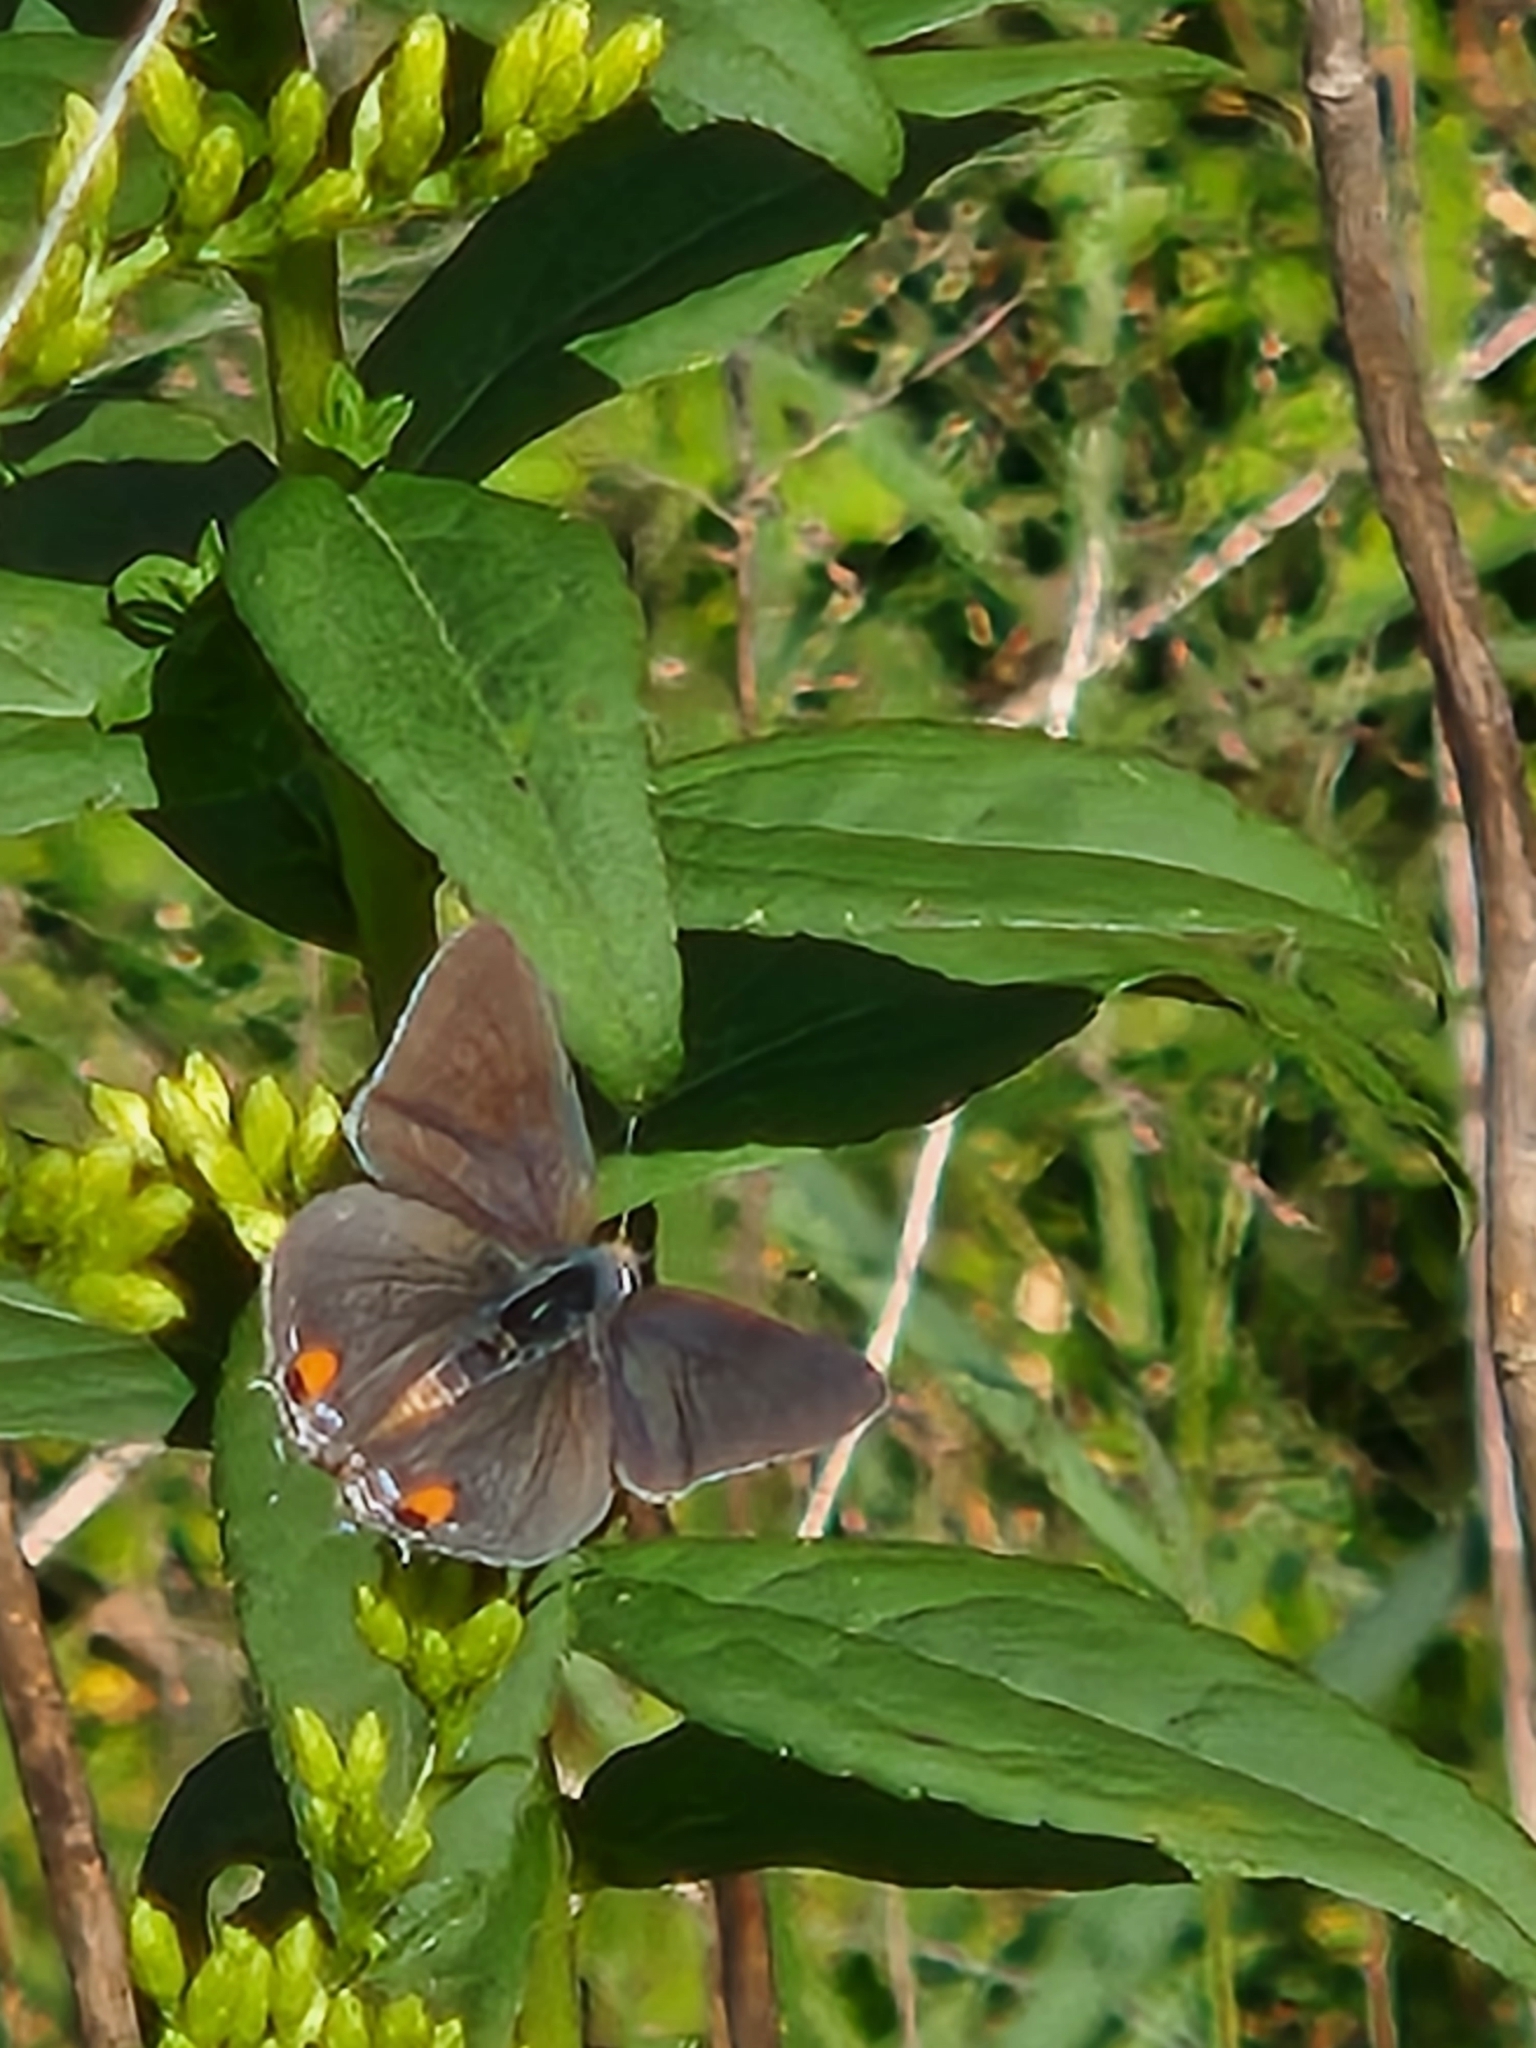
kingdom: Animalia
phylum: Arthropoda
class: Insecta
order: Lepidoptera
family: Lycaenidae
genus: Strymon
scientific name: Strymon melinus
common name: Gray hairstreak
